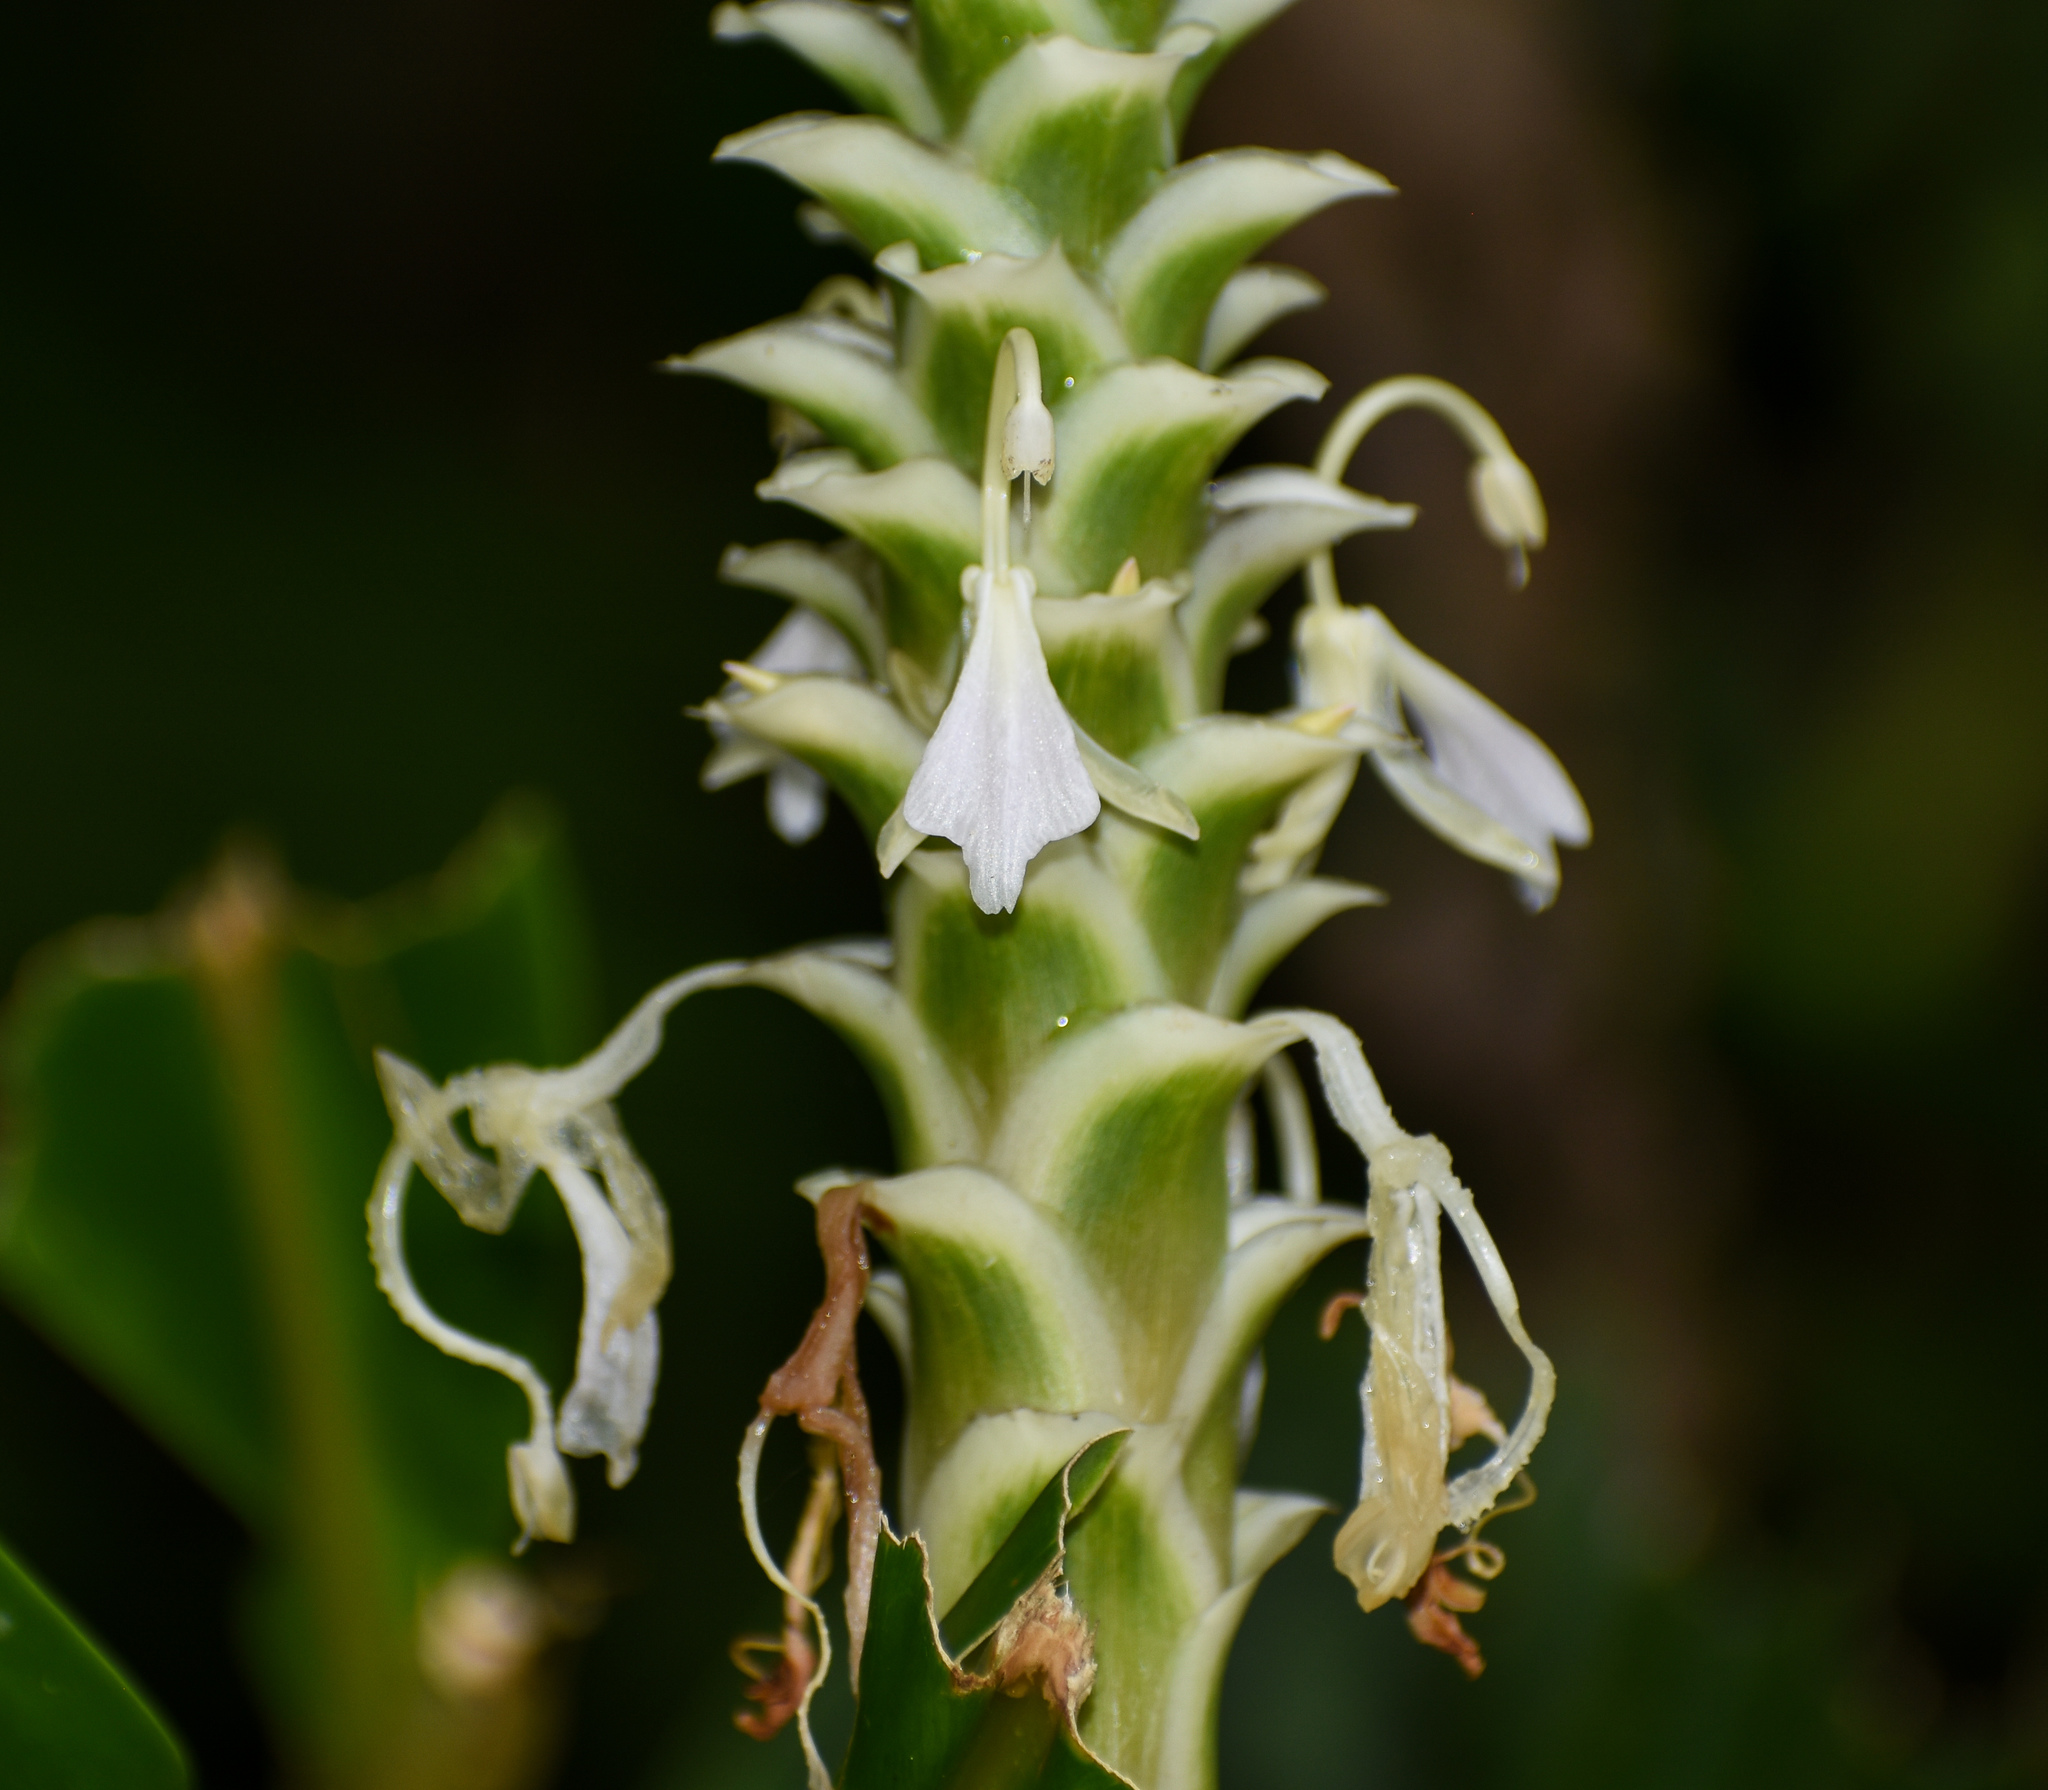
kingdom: Plantae
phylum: Tracheophyta
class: Liliopsida
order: Zingiberales
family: Zingiberaceae
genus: Larsenianthus
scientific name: Larsenianthus careyanus
